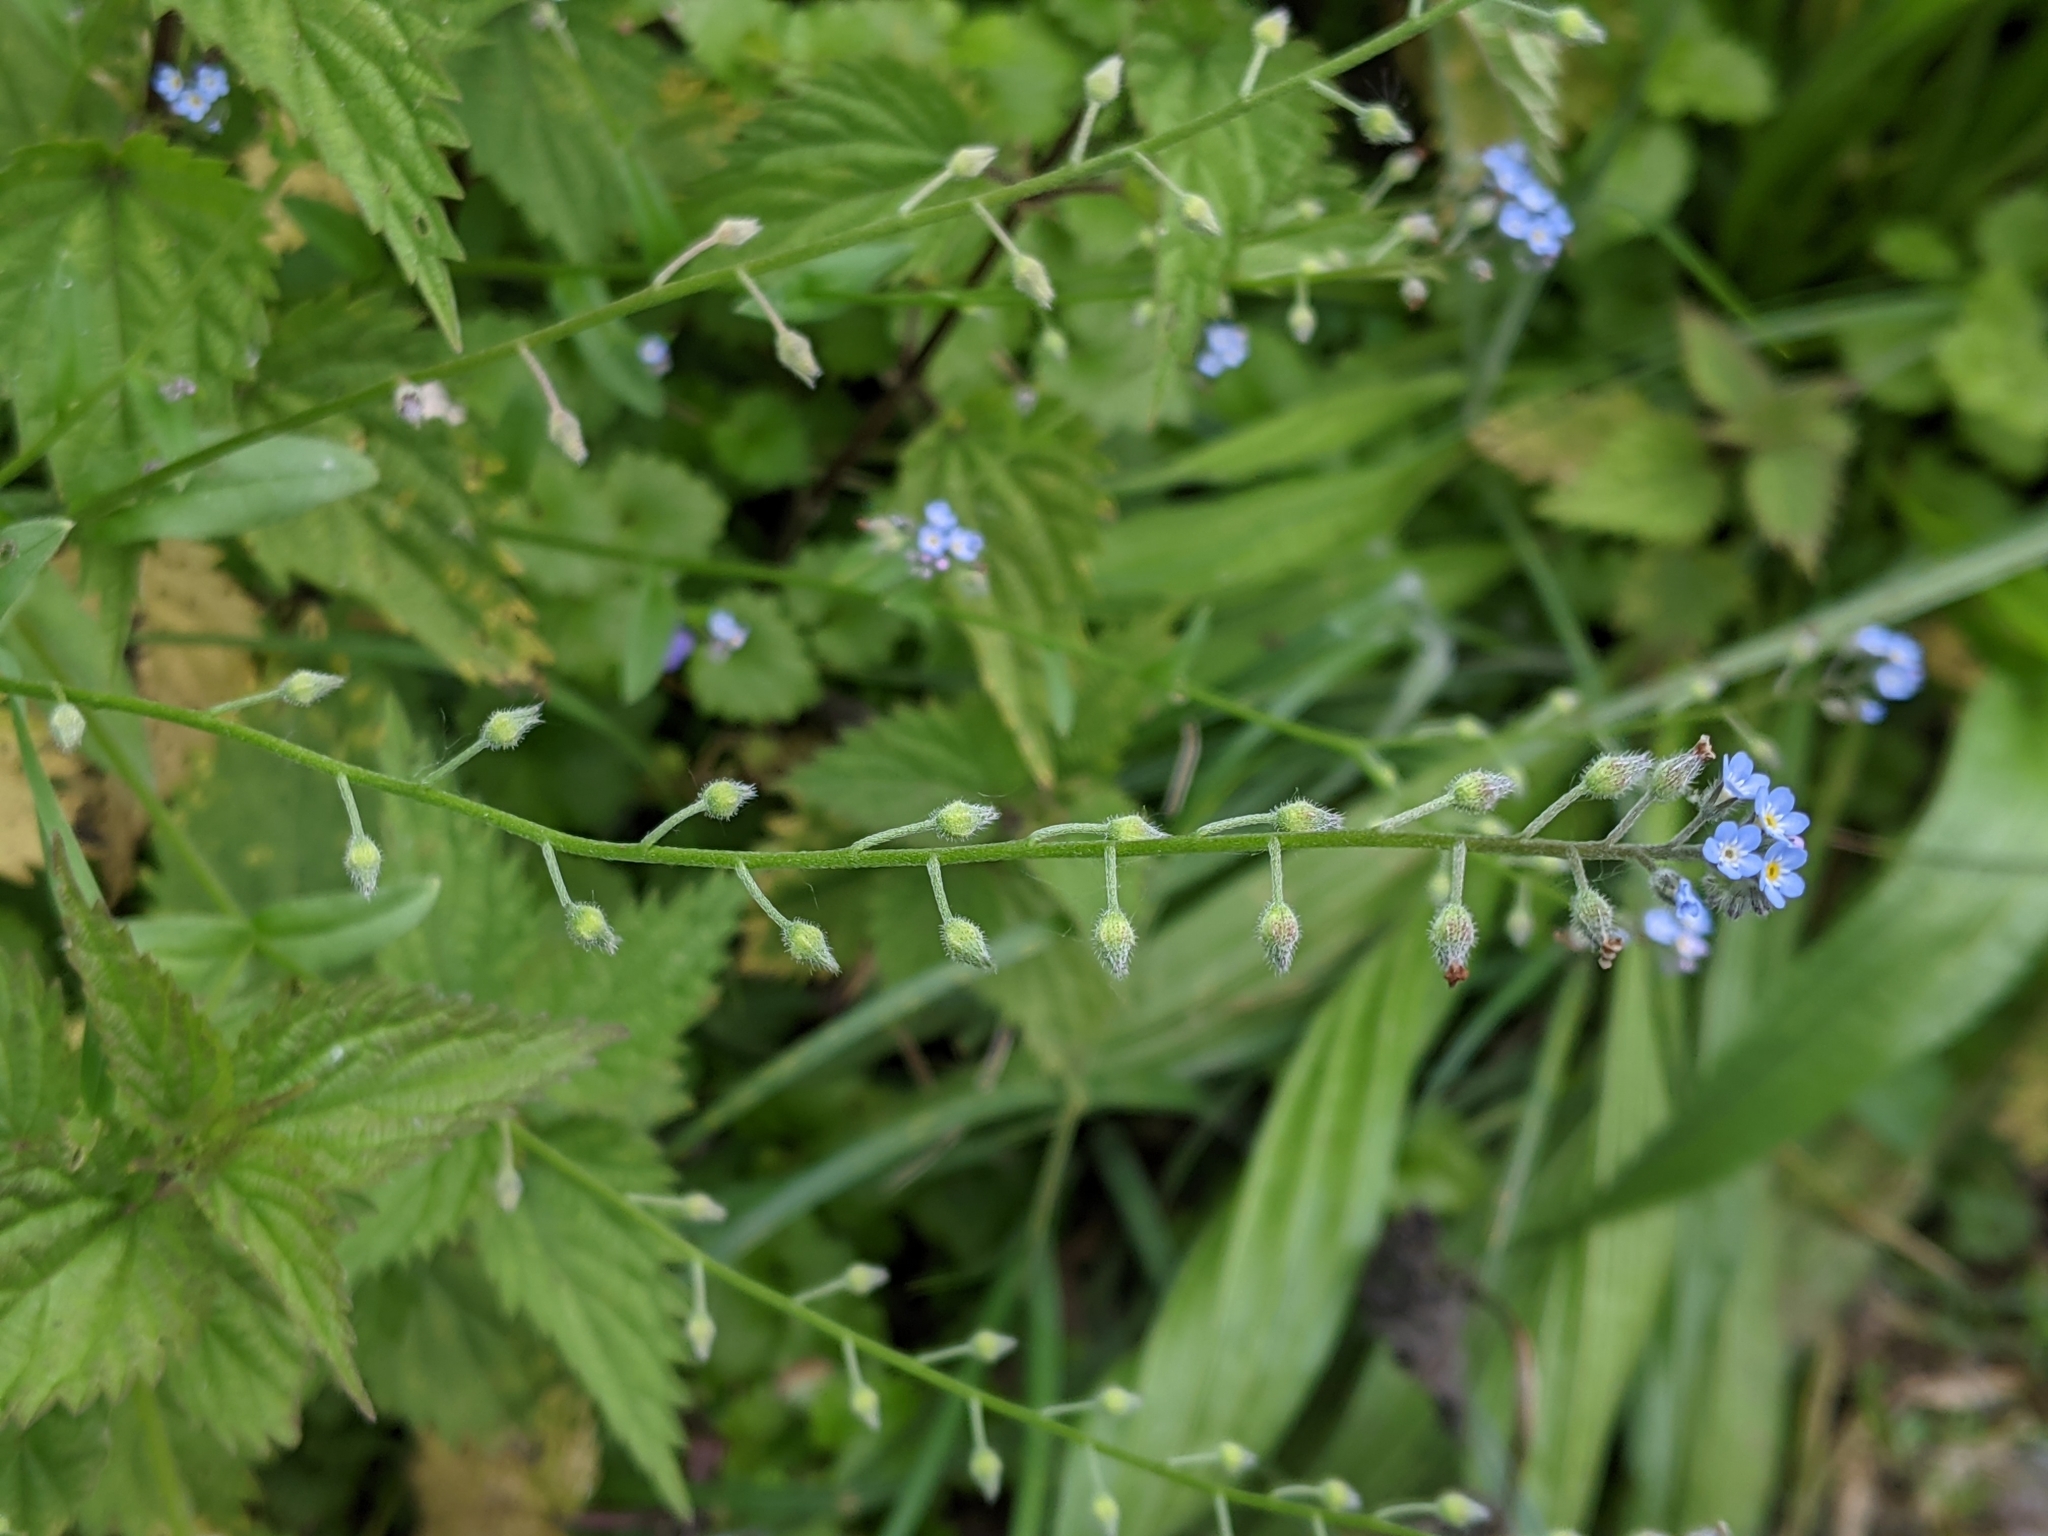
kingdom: Plantae
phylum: Tracheophyta
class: Magnoliopsida
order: Boraginales
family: Boraginaceae
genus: Myosotis
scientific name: Myosotis arvensis
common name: Field forget-me-not
